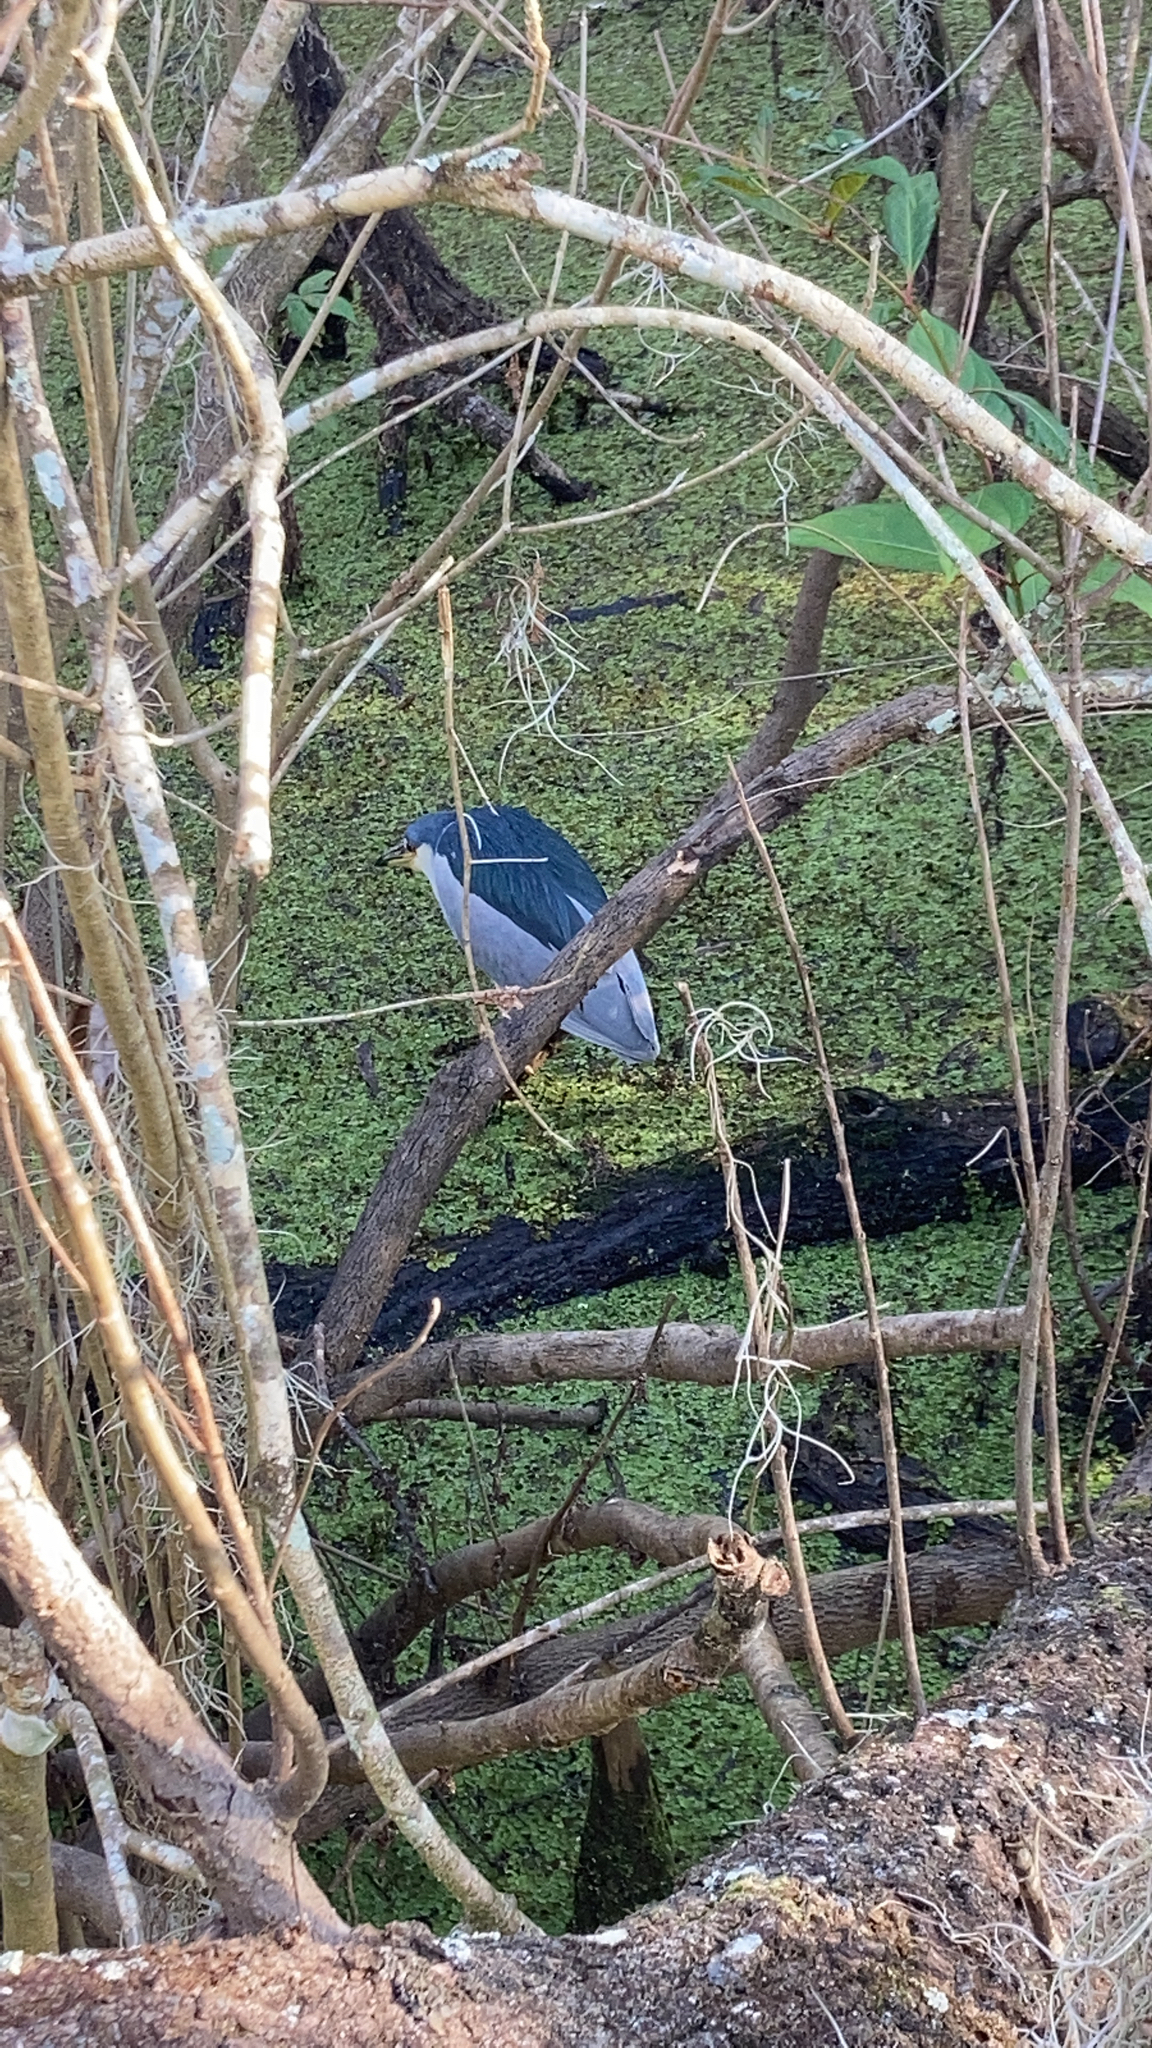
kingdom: Animalia
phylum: Chordata
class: Aves
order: Pelecaniformes
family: Ardeidae
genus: Nycticorax
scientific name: Nycticorax nycticorax
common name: Black-crowned night heron
